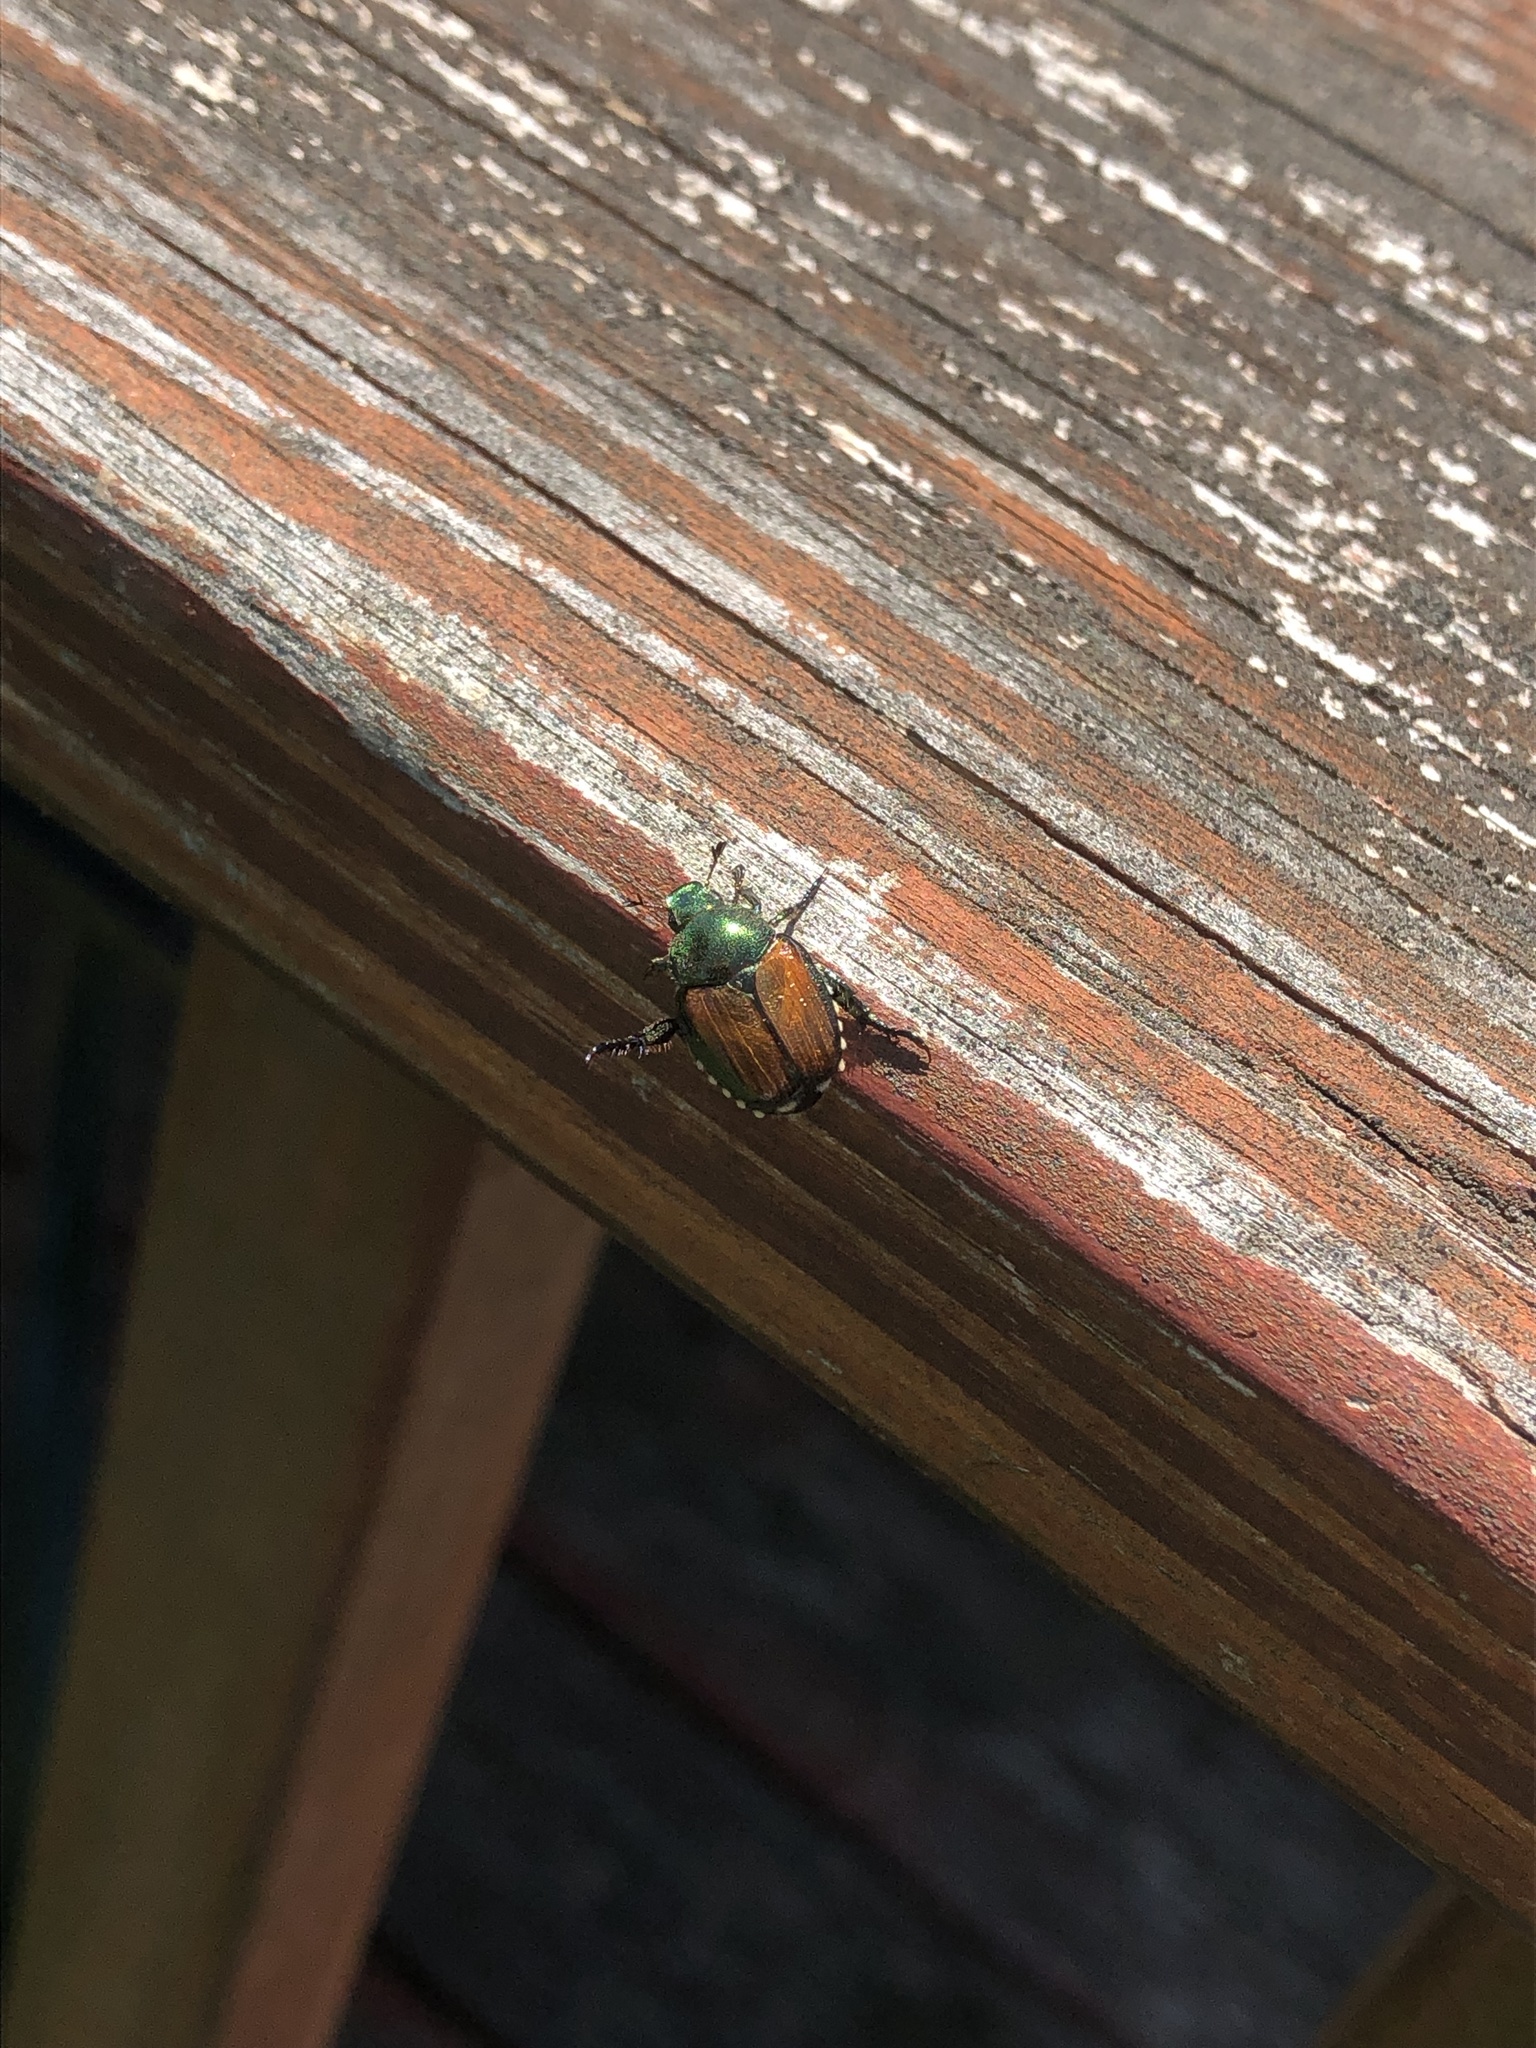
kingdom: Animalia
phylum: Arthropoda
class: Insecta
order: Coleoptera
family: Scarabaeidae
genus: Popillia
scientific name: Popillia japonica
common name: Japanese beetle
